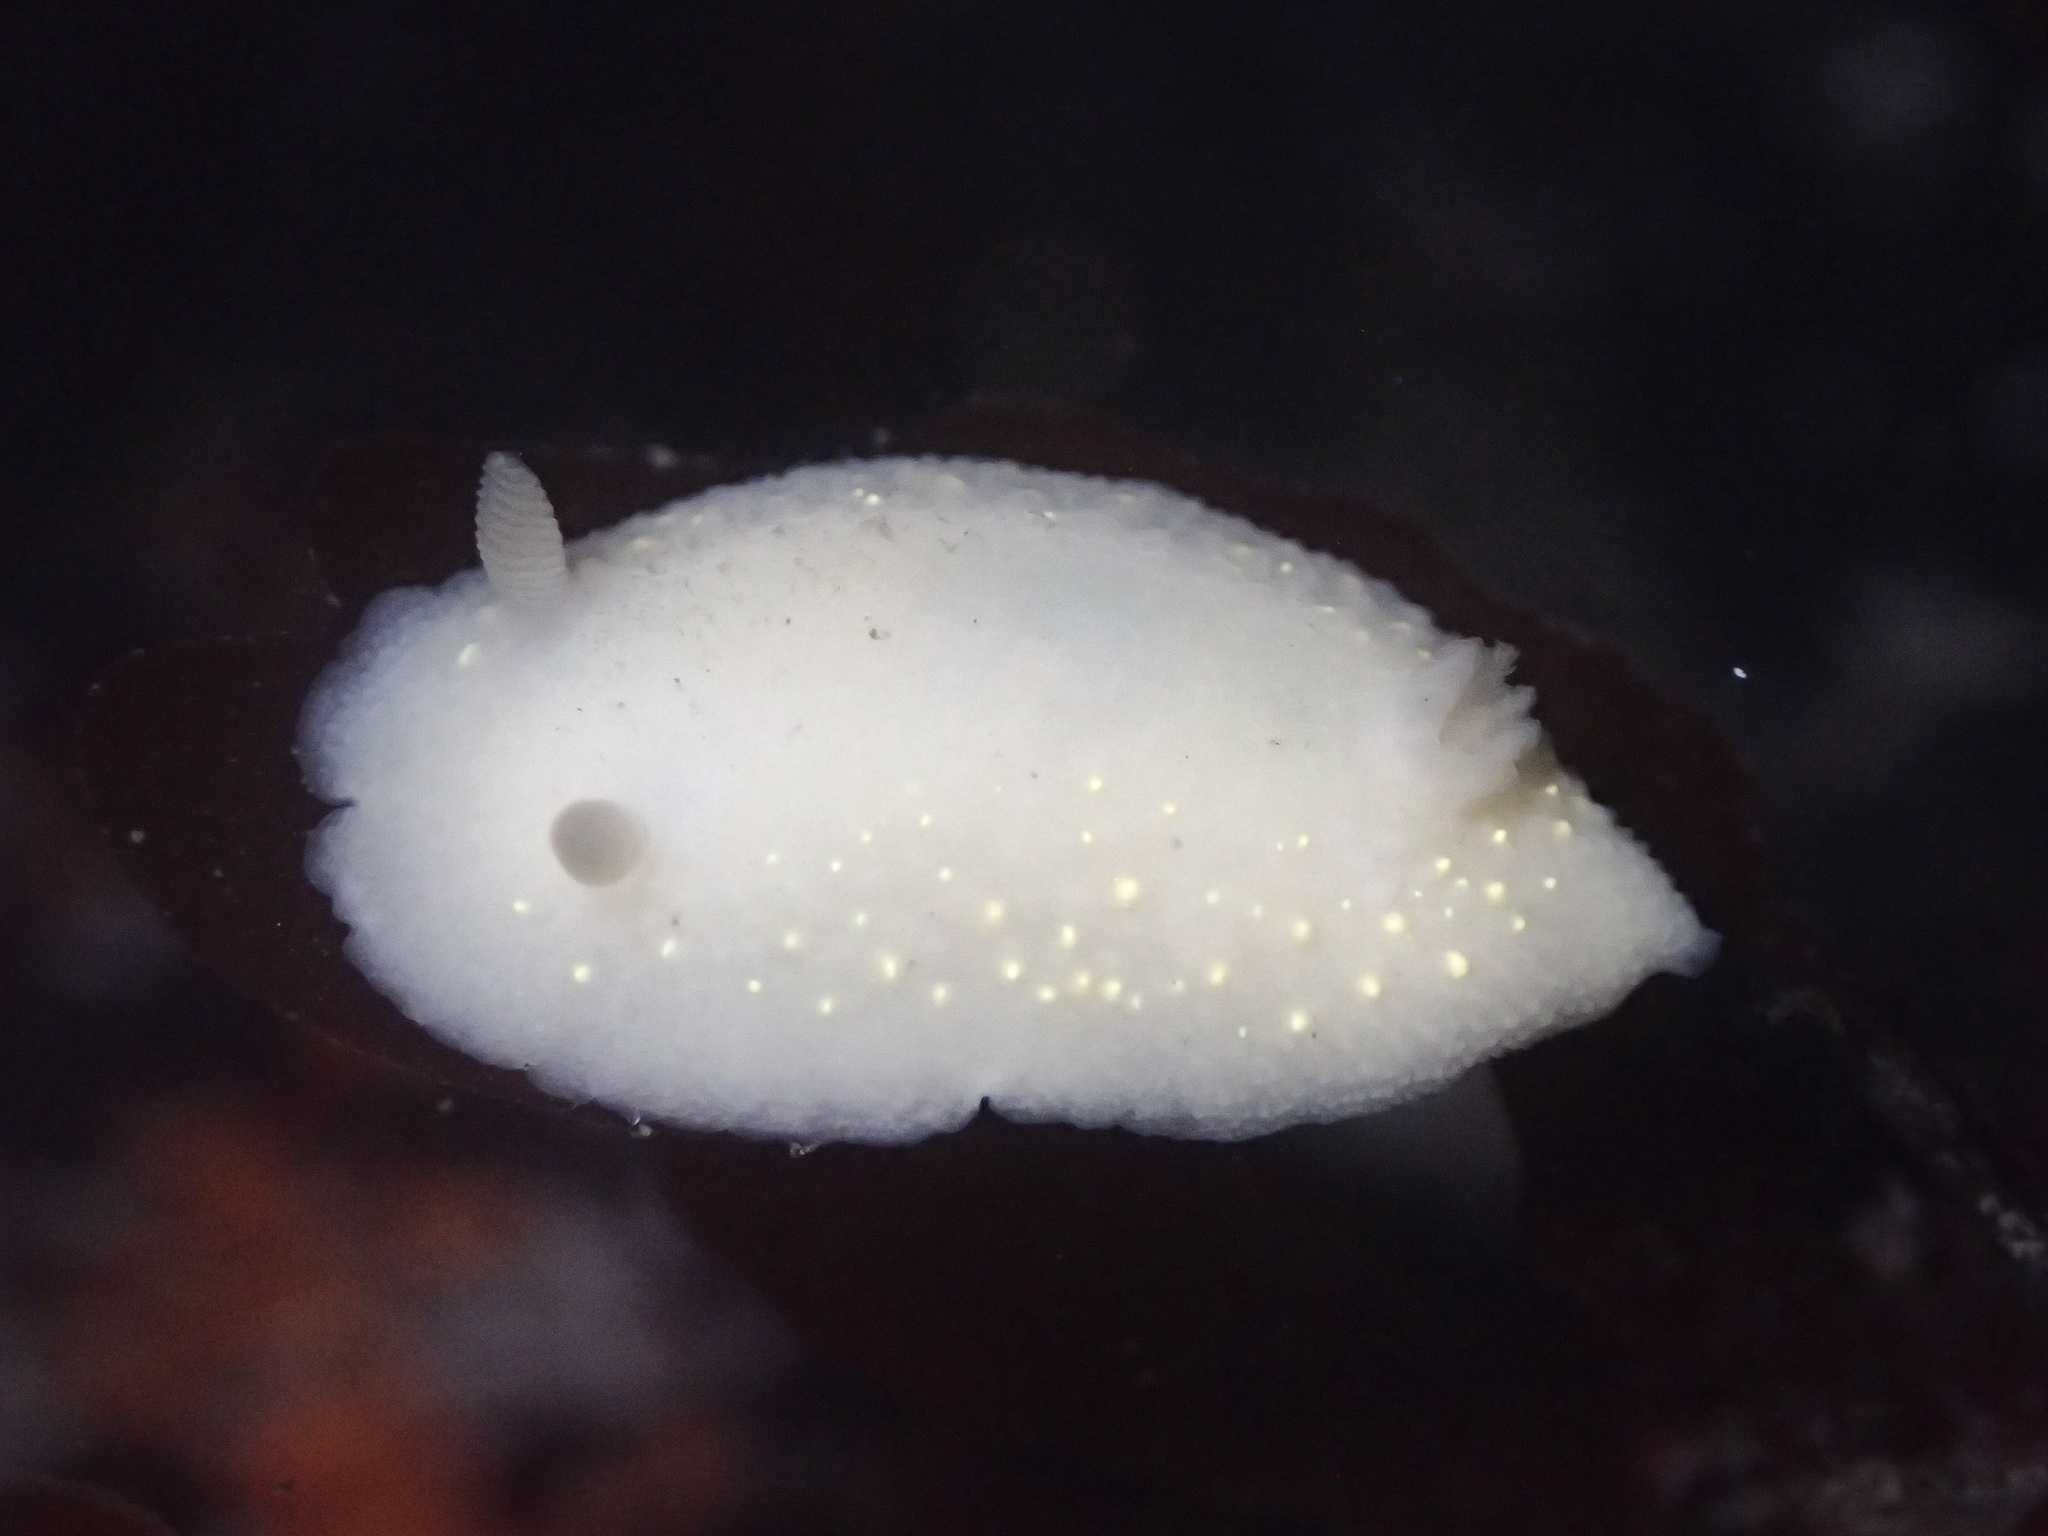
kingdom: Animalia
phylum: Mollusca
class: Gastropoda
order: Nudibranchia
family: Cadlinidae
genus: Cadlina
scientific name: Cadlina modesta
